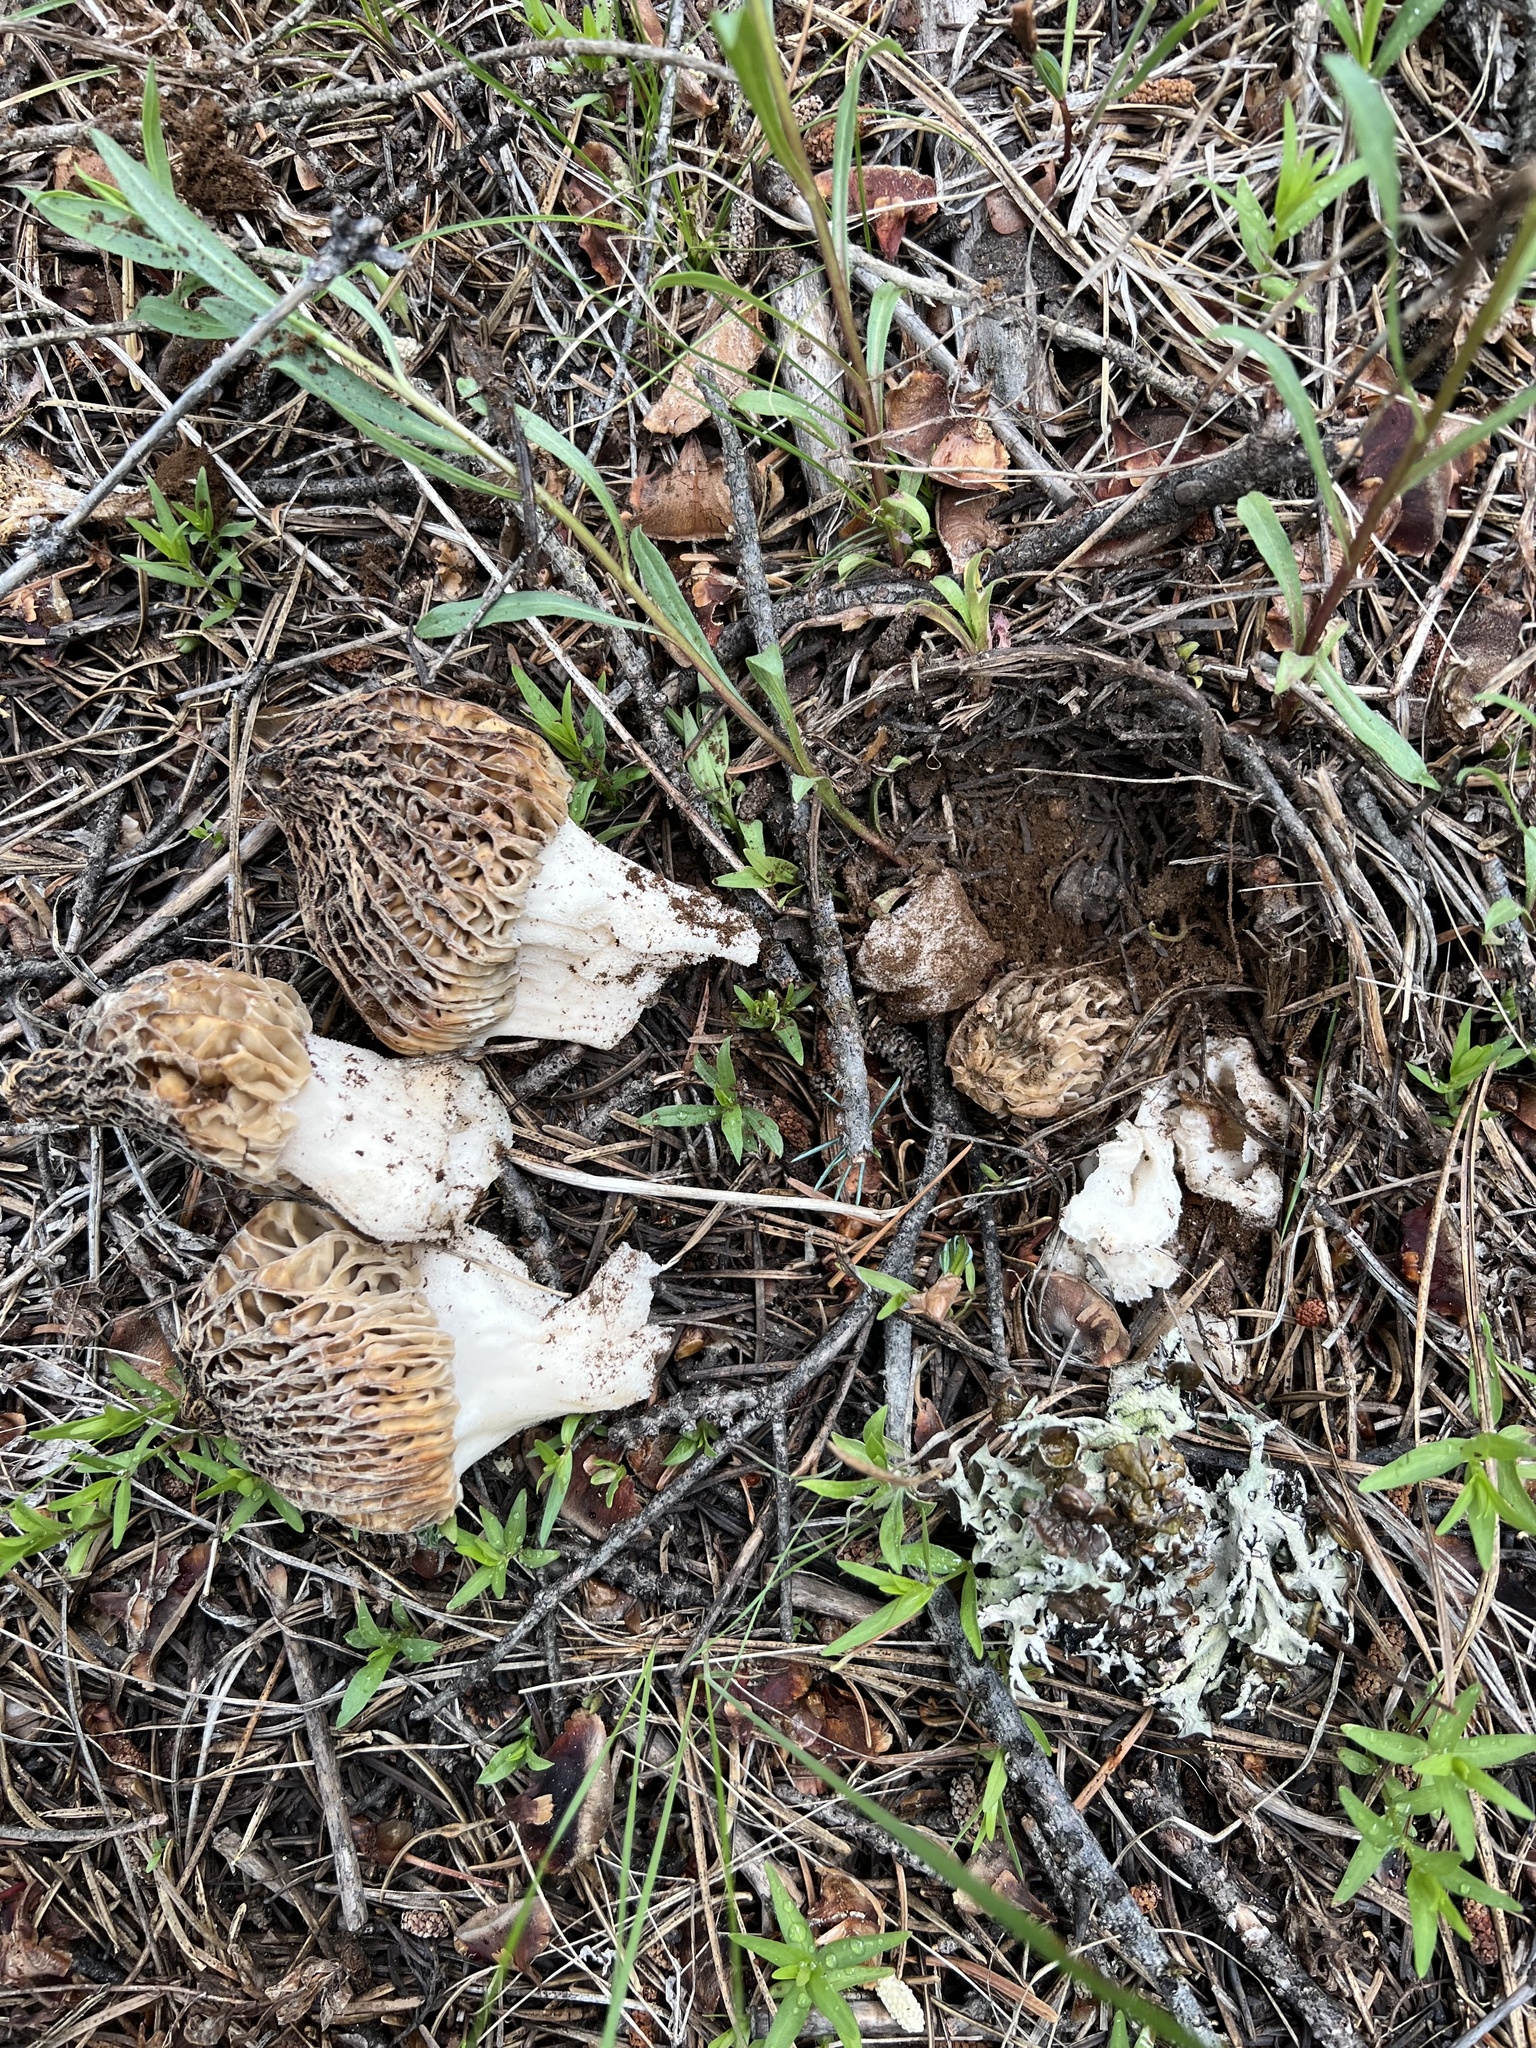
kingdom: Fungi
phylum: Ascomycota
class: Pezizomycetes
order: Pezizales
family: Morchellaceae
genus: Morchella
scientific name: Morchella tridentina
